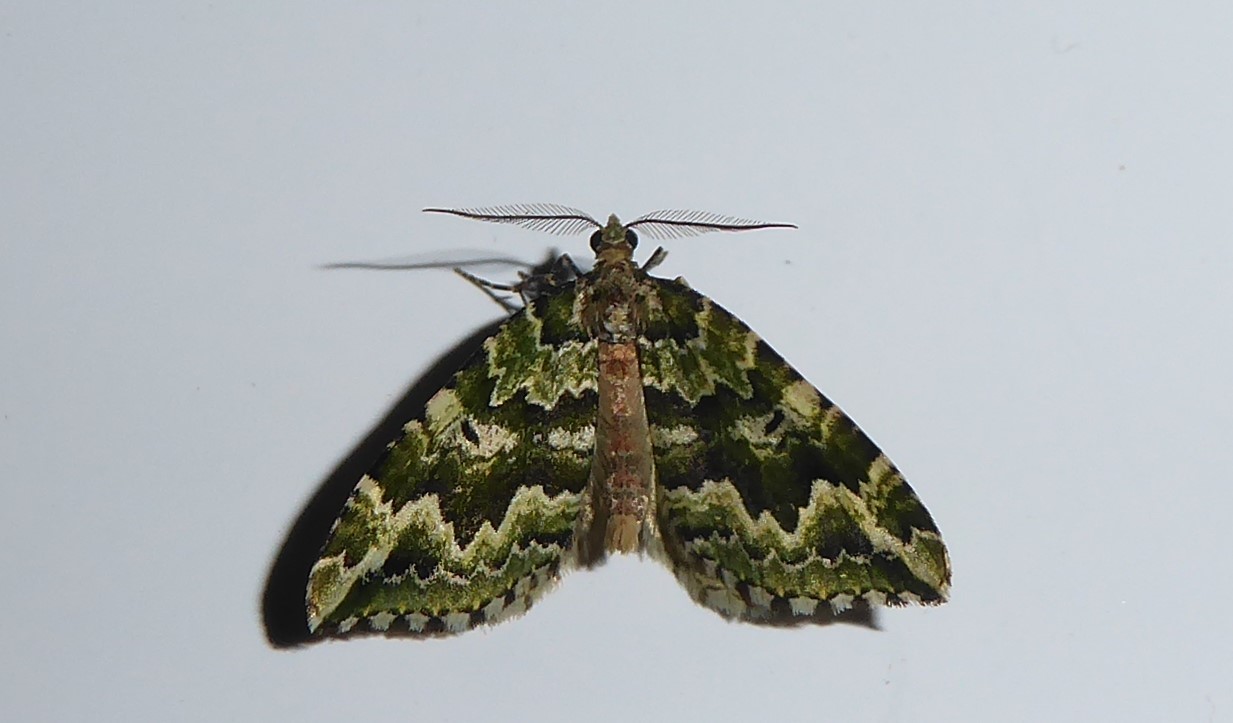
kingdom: Animalia
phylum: Arthropoda
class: Insecta
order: Lepidoptera
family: Geometridae
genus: Asaphodes
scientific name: Asaphodes beata
